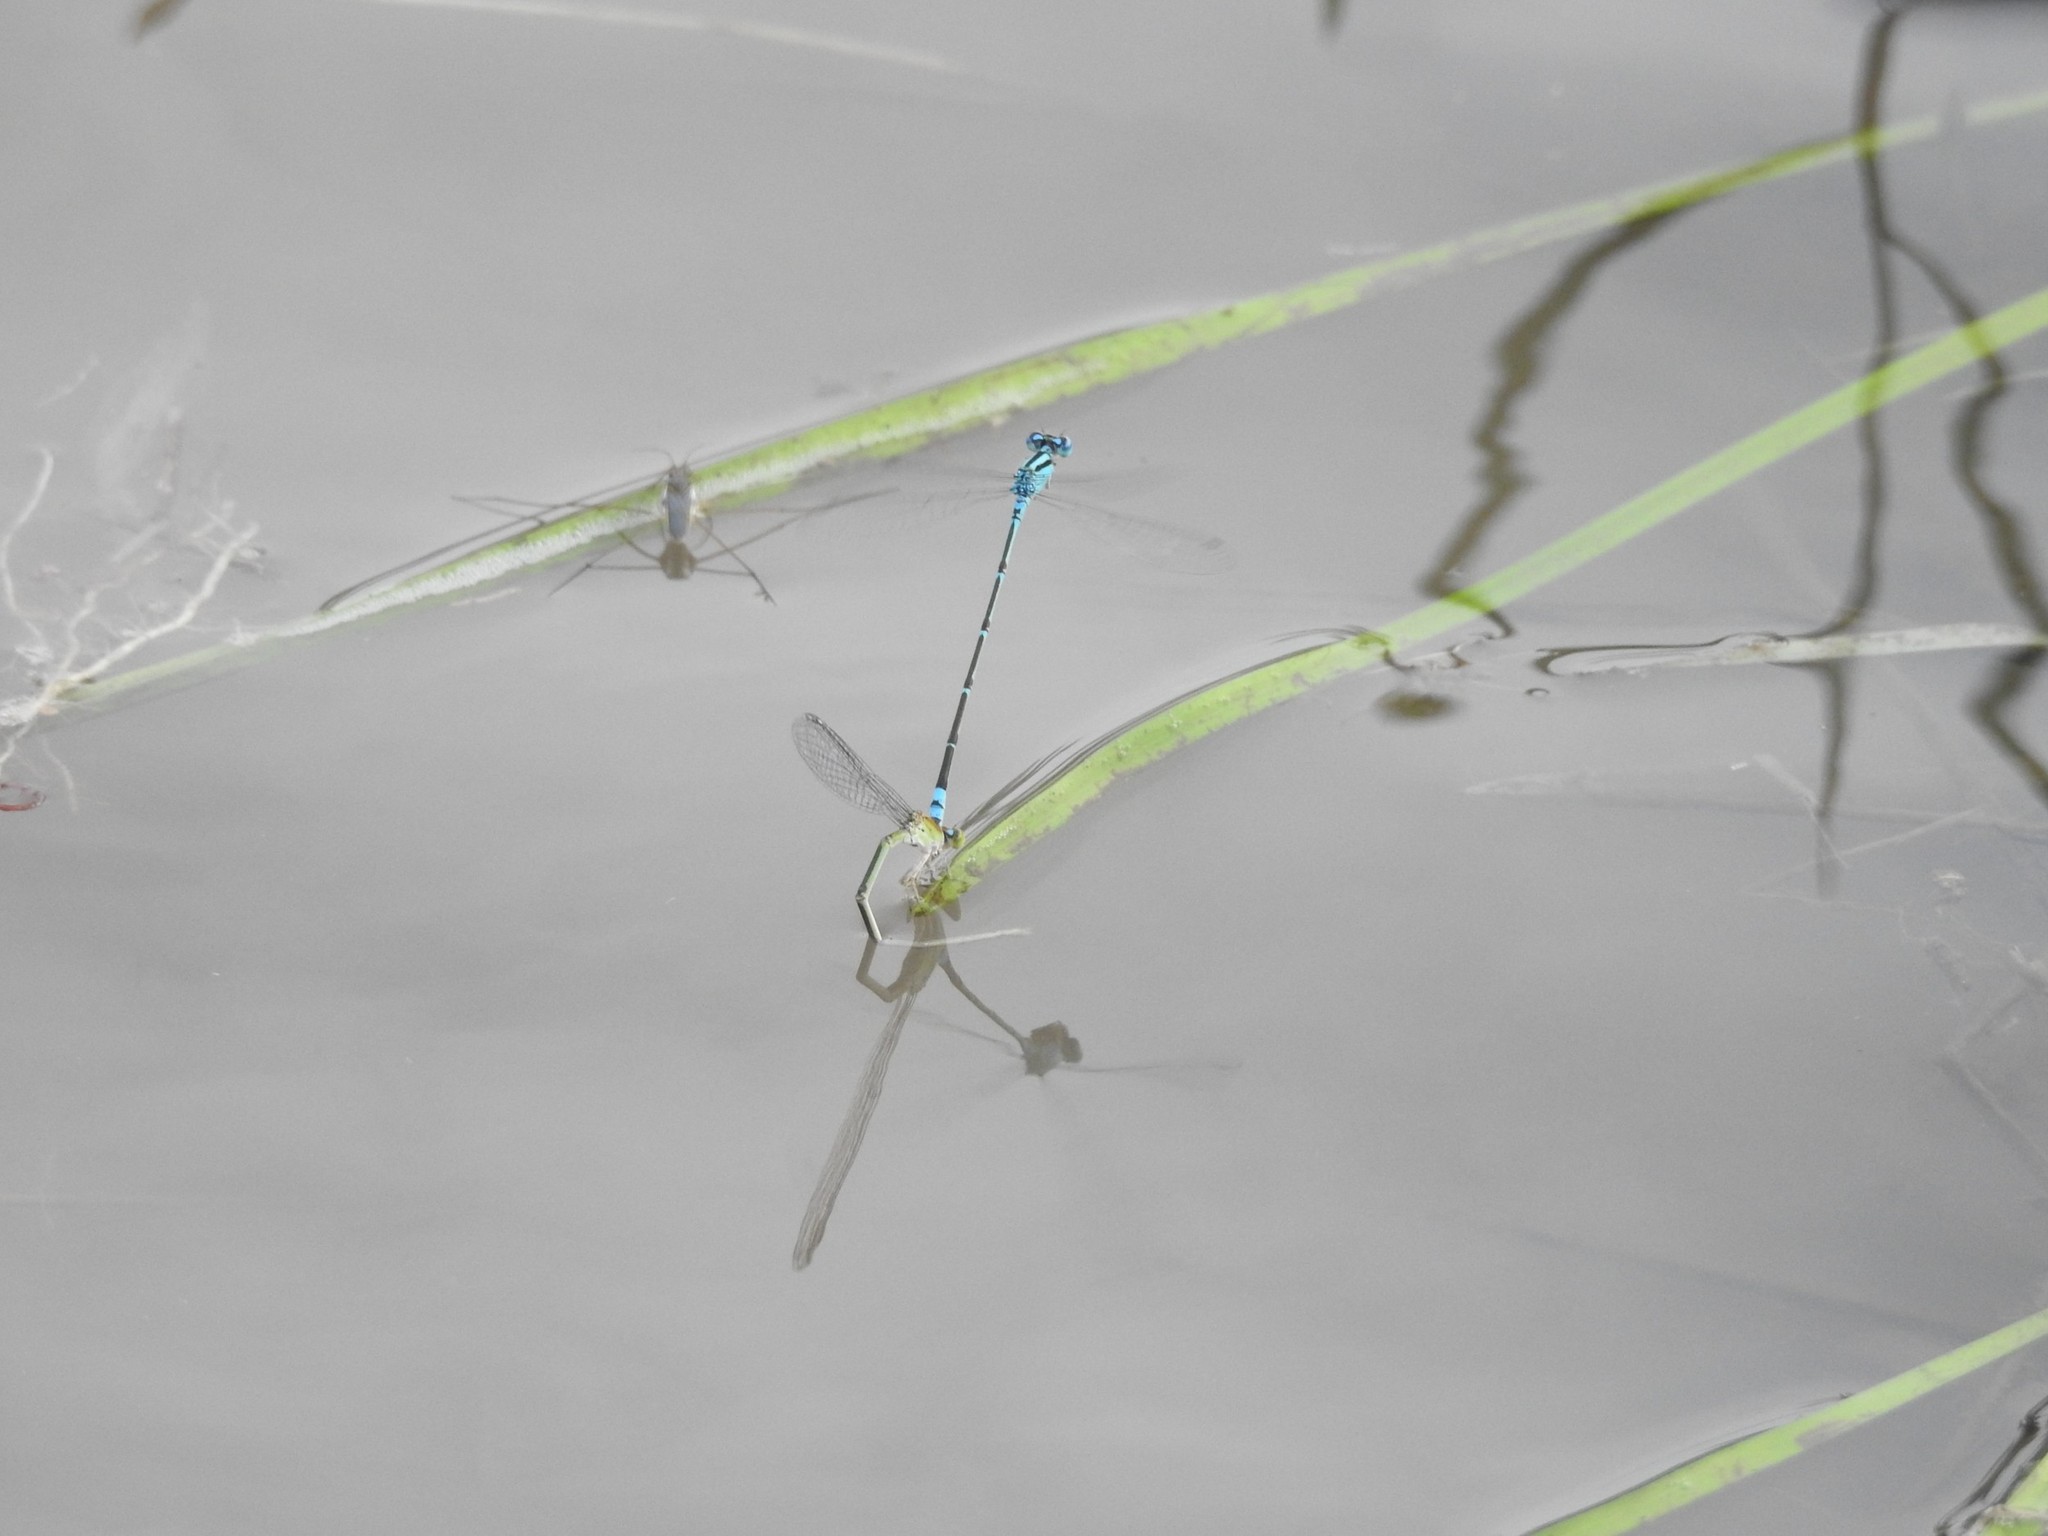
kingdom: Animalia
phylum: Arthropoda
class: Insecta
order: Odonata
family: Coenagrionidae
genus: Pseudagrion
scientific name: Pseudagrion microcephalum
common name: Blue riverdamsel
